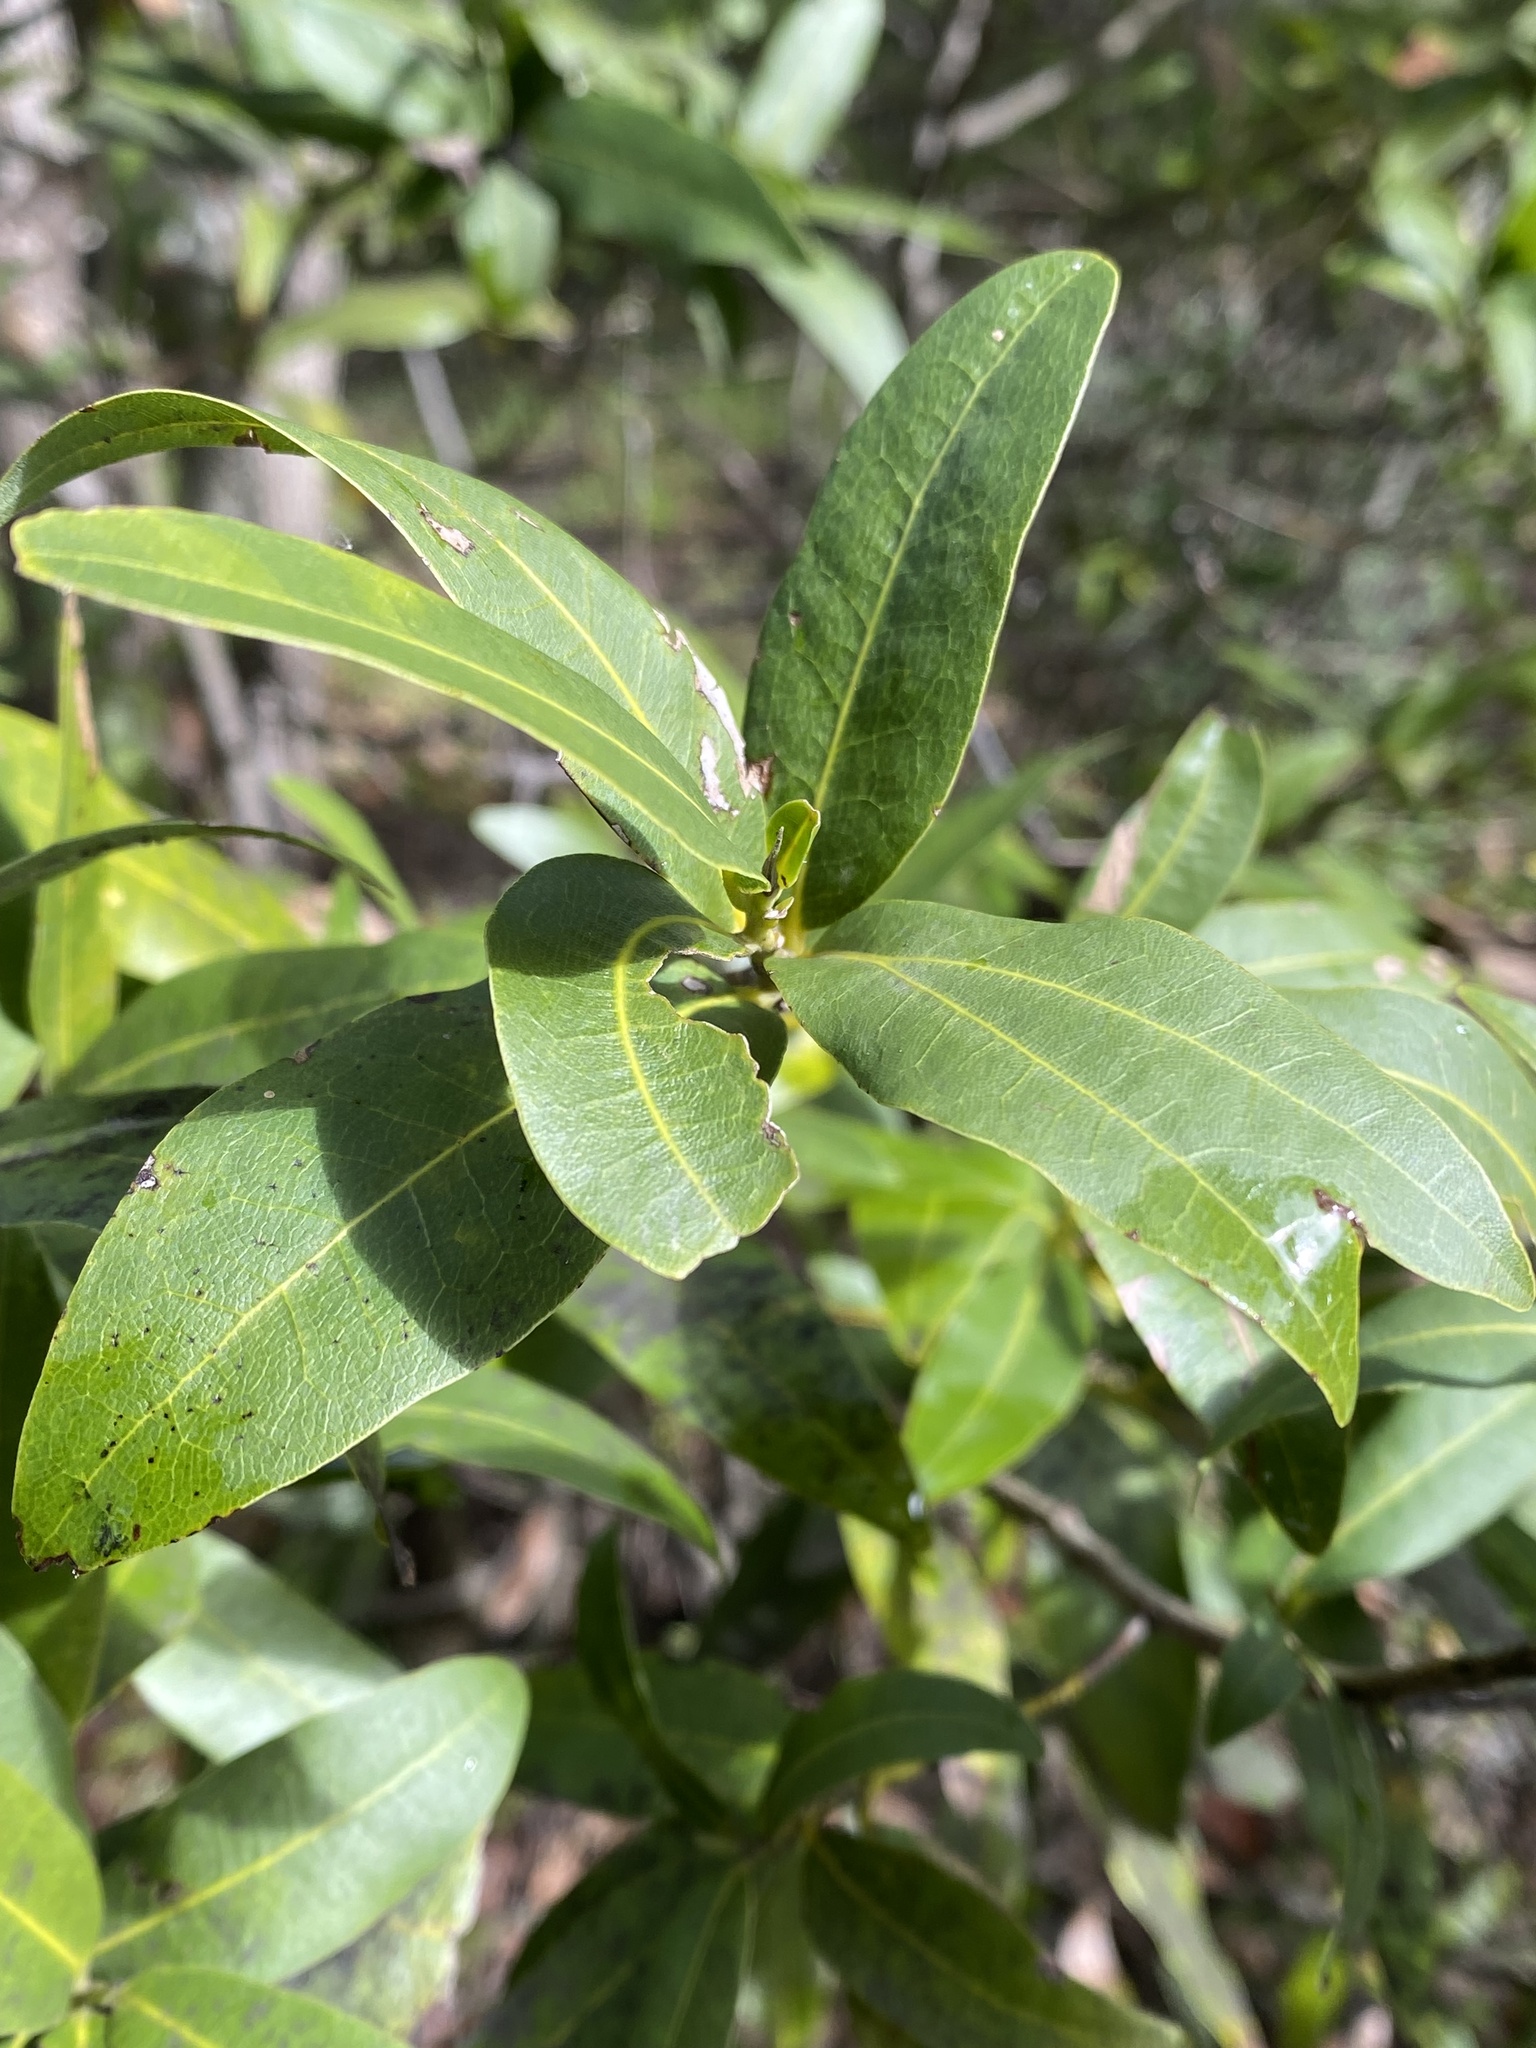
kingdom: Plantae
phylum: Tracheophyta
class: Magnoliopsida
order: Laurales
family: Lauraceae
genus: Umbellularia
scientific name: Umbellularia californica
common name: California bay
